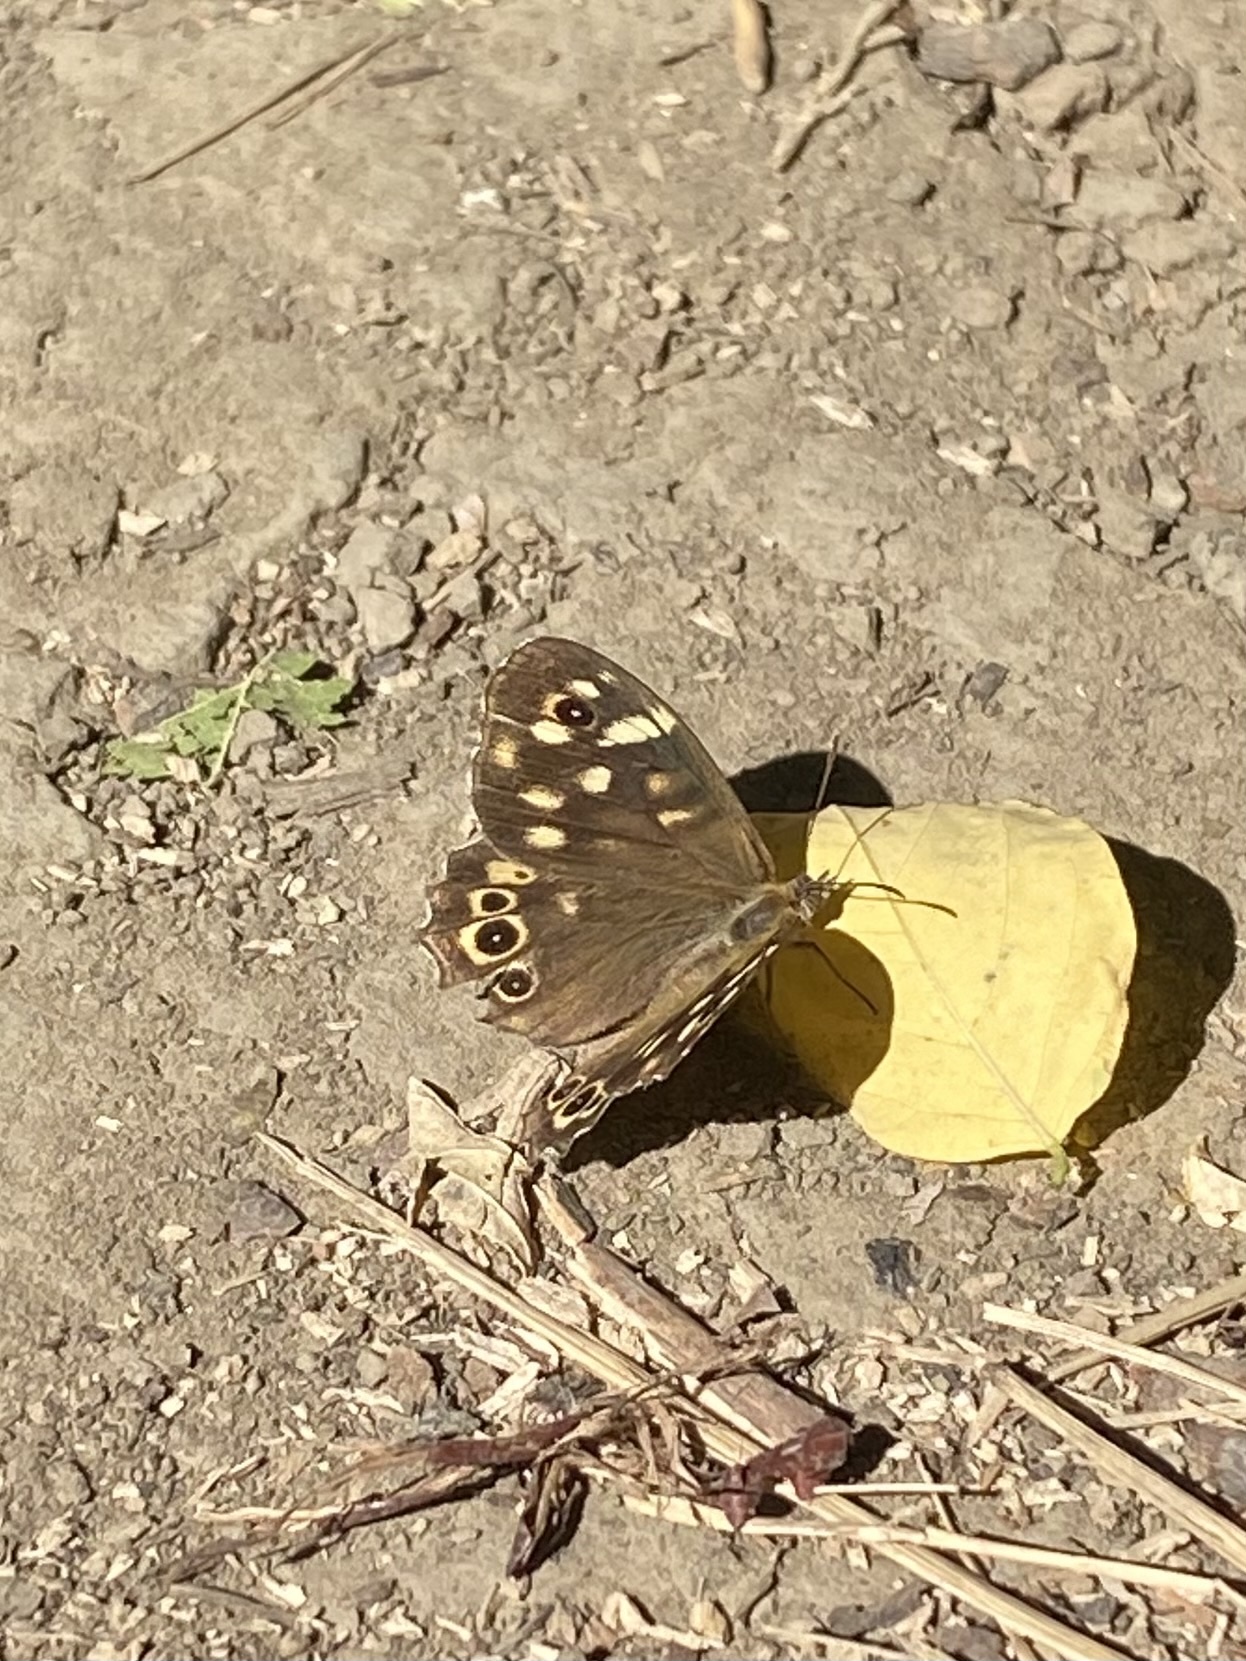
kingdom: Animalia
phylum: Arthropoda
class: Insecta
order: Lepidoptera
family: Nymphalidae
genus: Pararge
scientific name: Pararge aegeria
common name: Speckled wood
